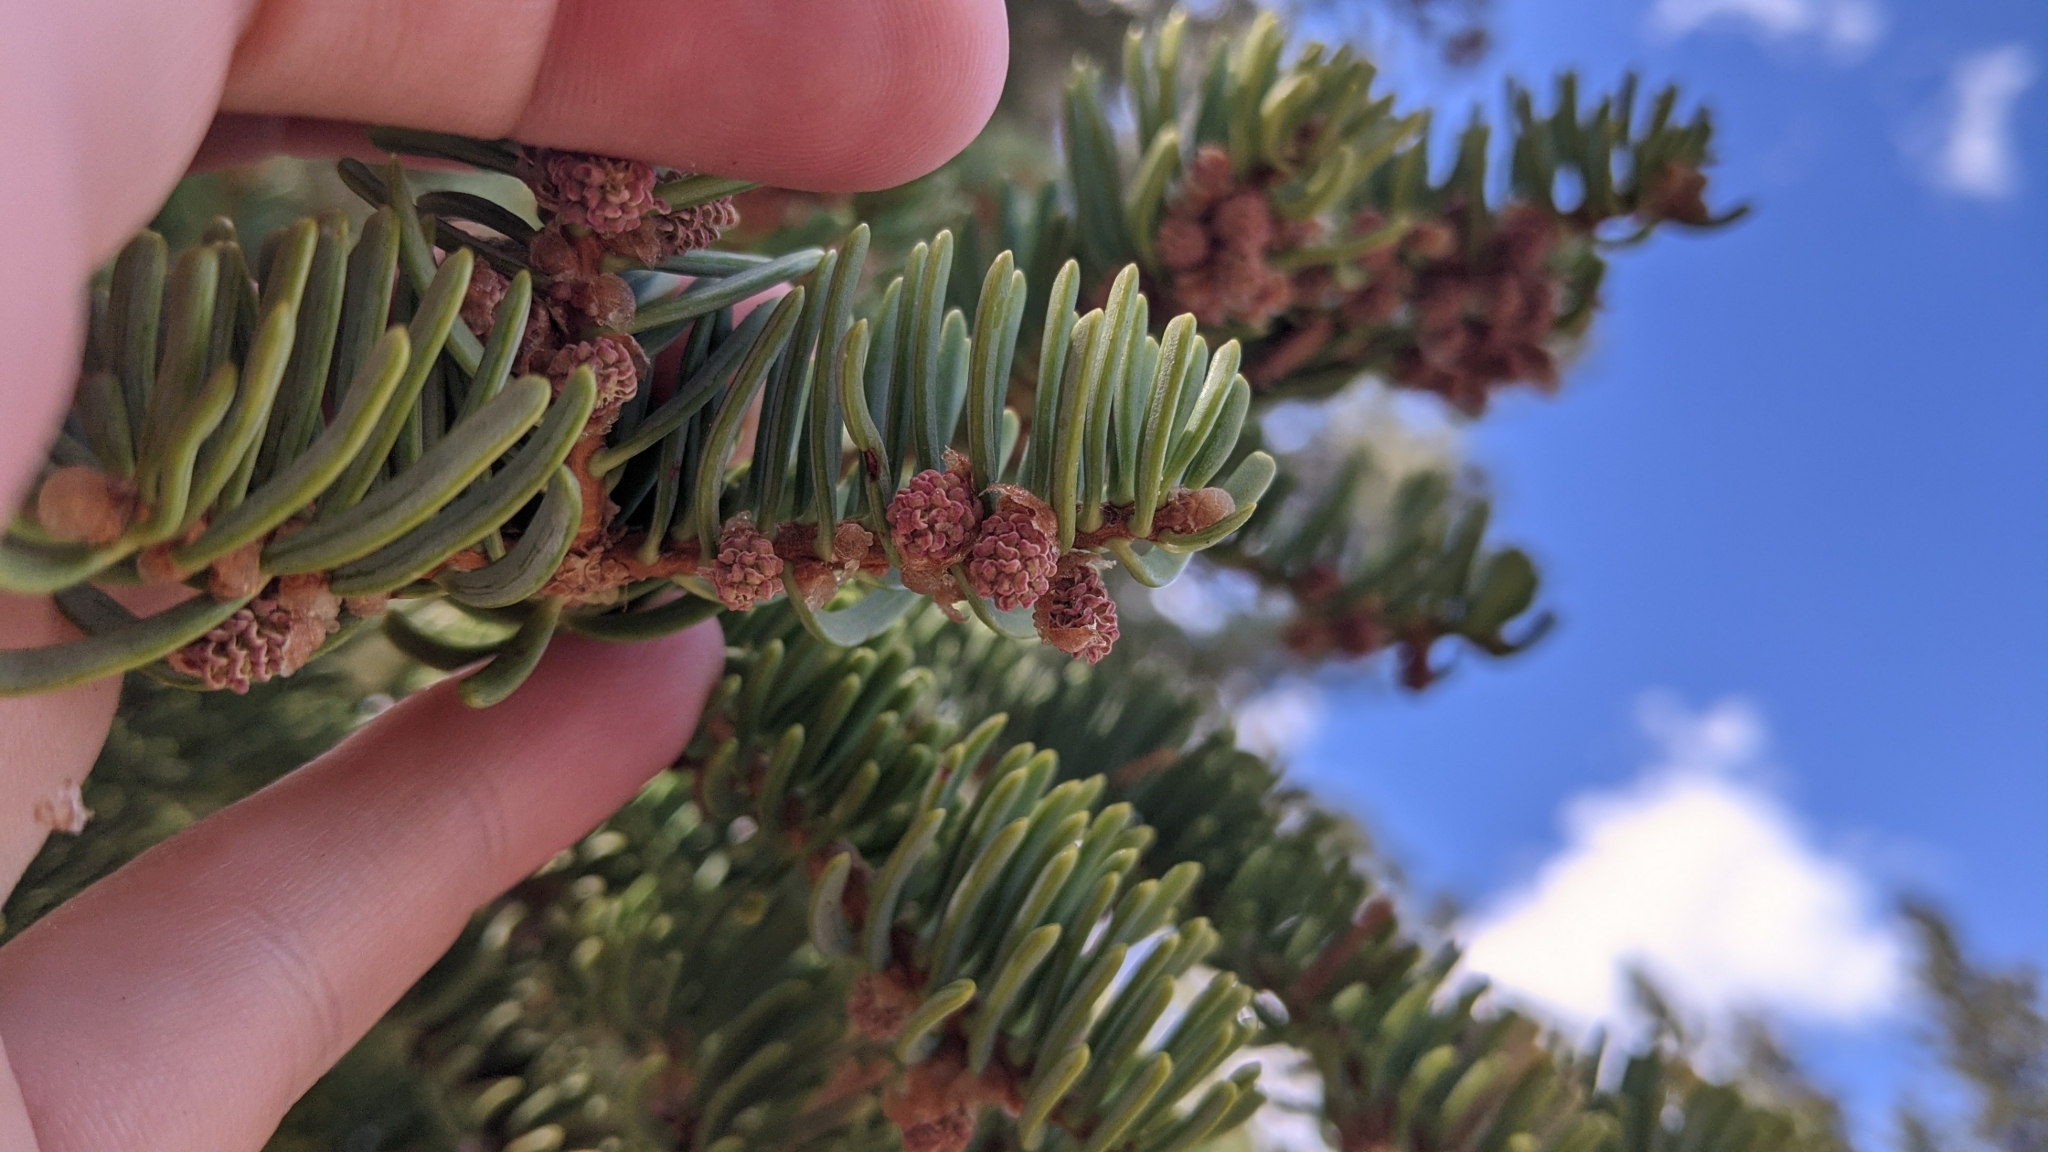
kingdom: Plantae
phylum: Tracheophyta
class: Pinopsida
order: Pinales
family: Pinaceae
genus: Abies
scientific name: Abies concolor
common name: Colorado fir
